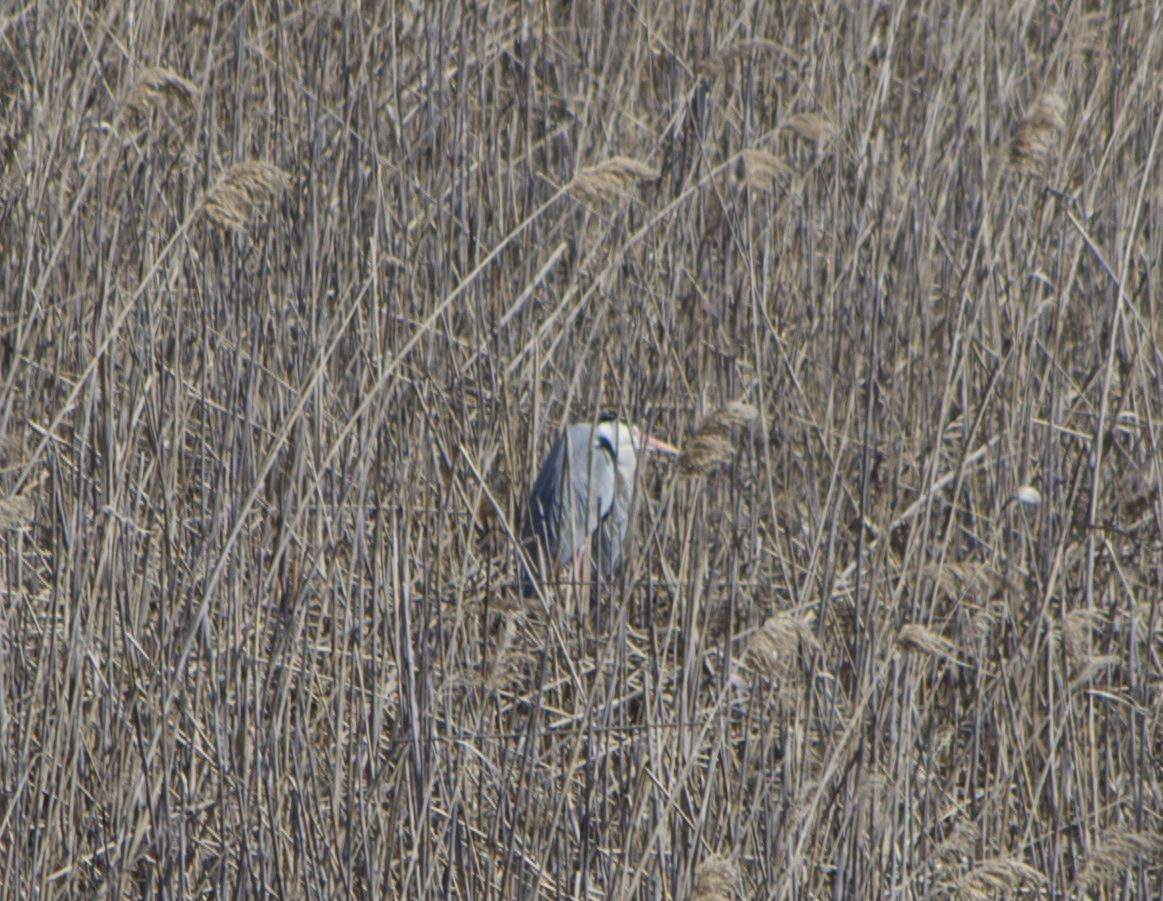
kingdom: Animalia
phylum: Chordata
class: Aves
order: Pelecaniformes
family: Ardeidae
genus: Ardea
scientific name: Ardea cinerea
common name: Grey heron
